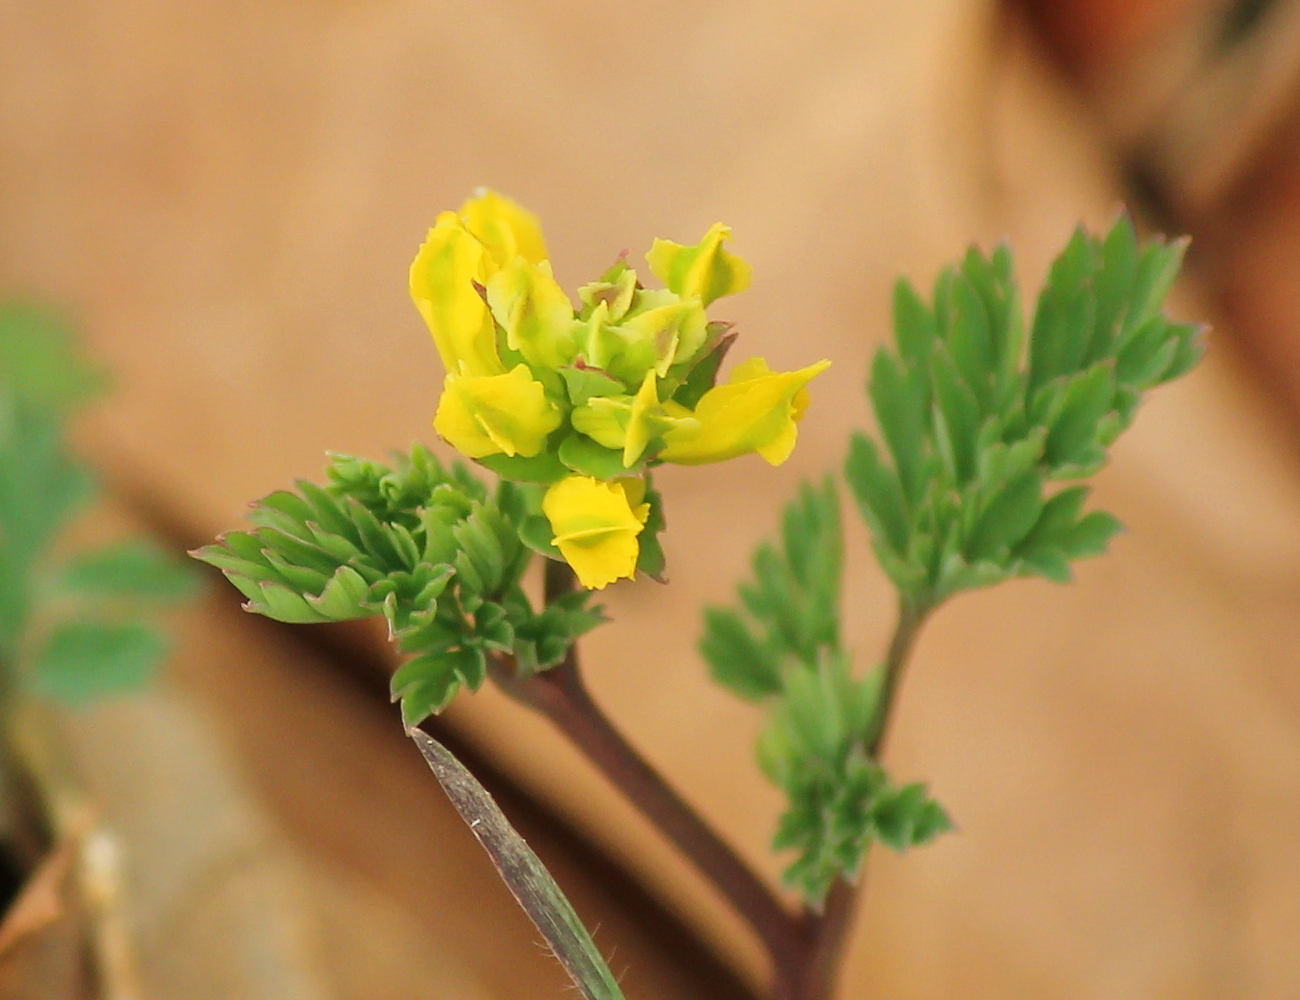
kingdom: Plantae
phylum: Tracheophyta
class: Magnoliopsida
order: Ranunculales
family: Papaveraceae
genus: Corydalis
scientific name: Corydalis flavula
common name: Yellow corydalis
